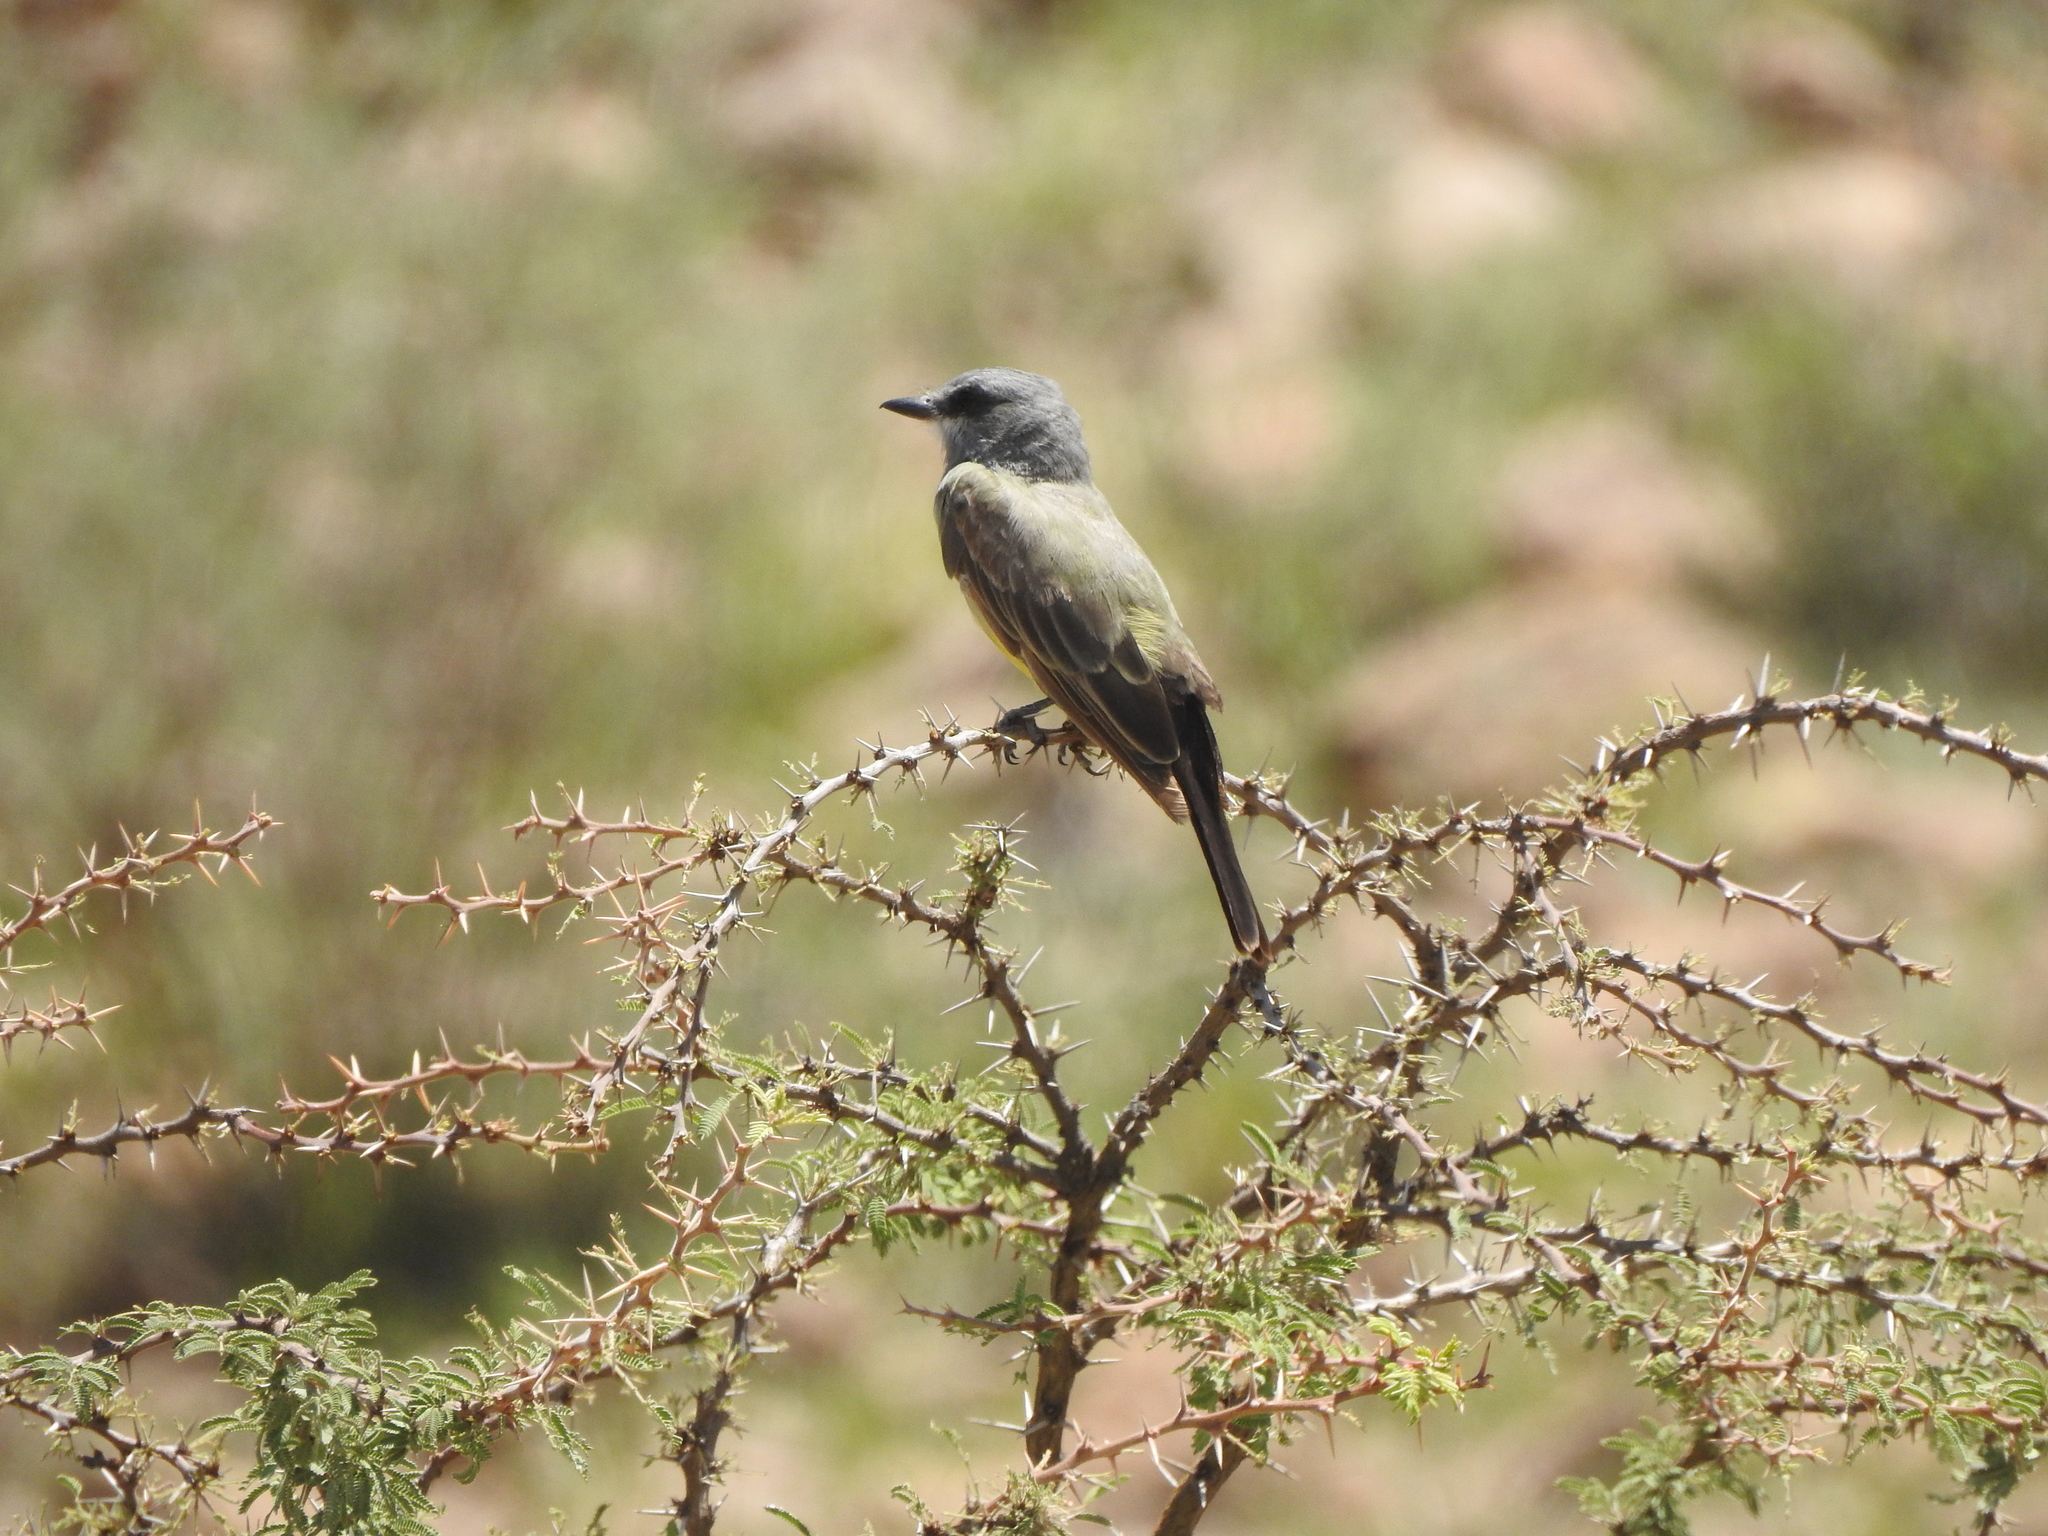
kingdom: Animalia
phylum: Chordata
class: Aves
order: Passeriformes
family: Tyrannidae
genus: Tyrannus
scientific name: Tyrannus vociferans
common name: Cassin's kingbird
